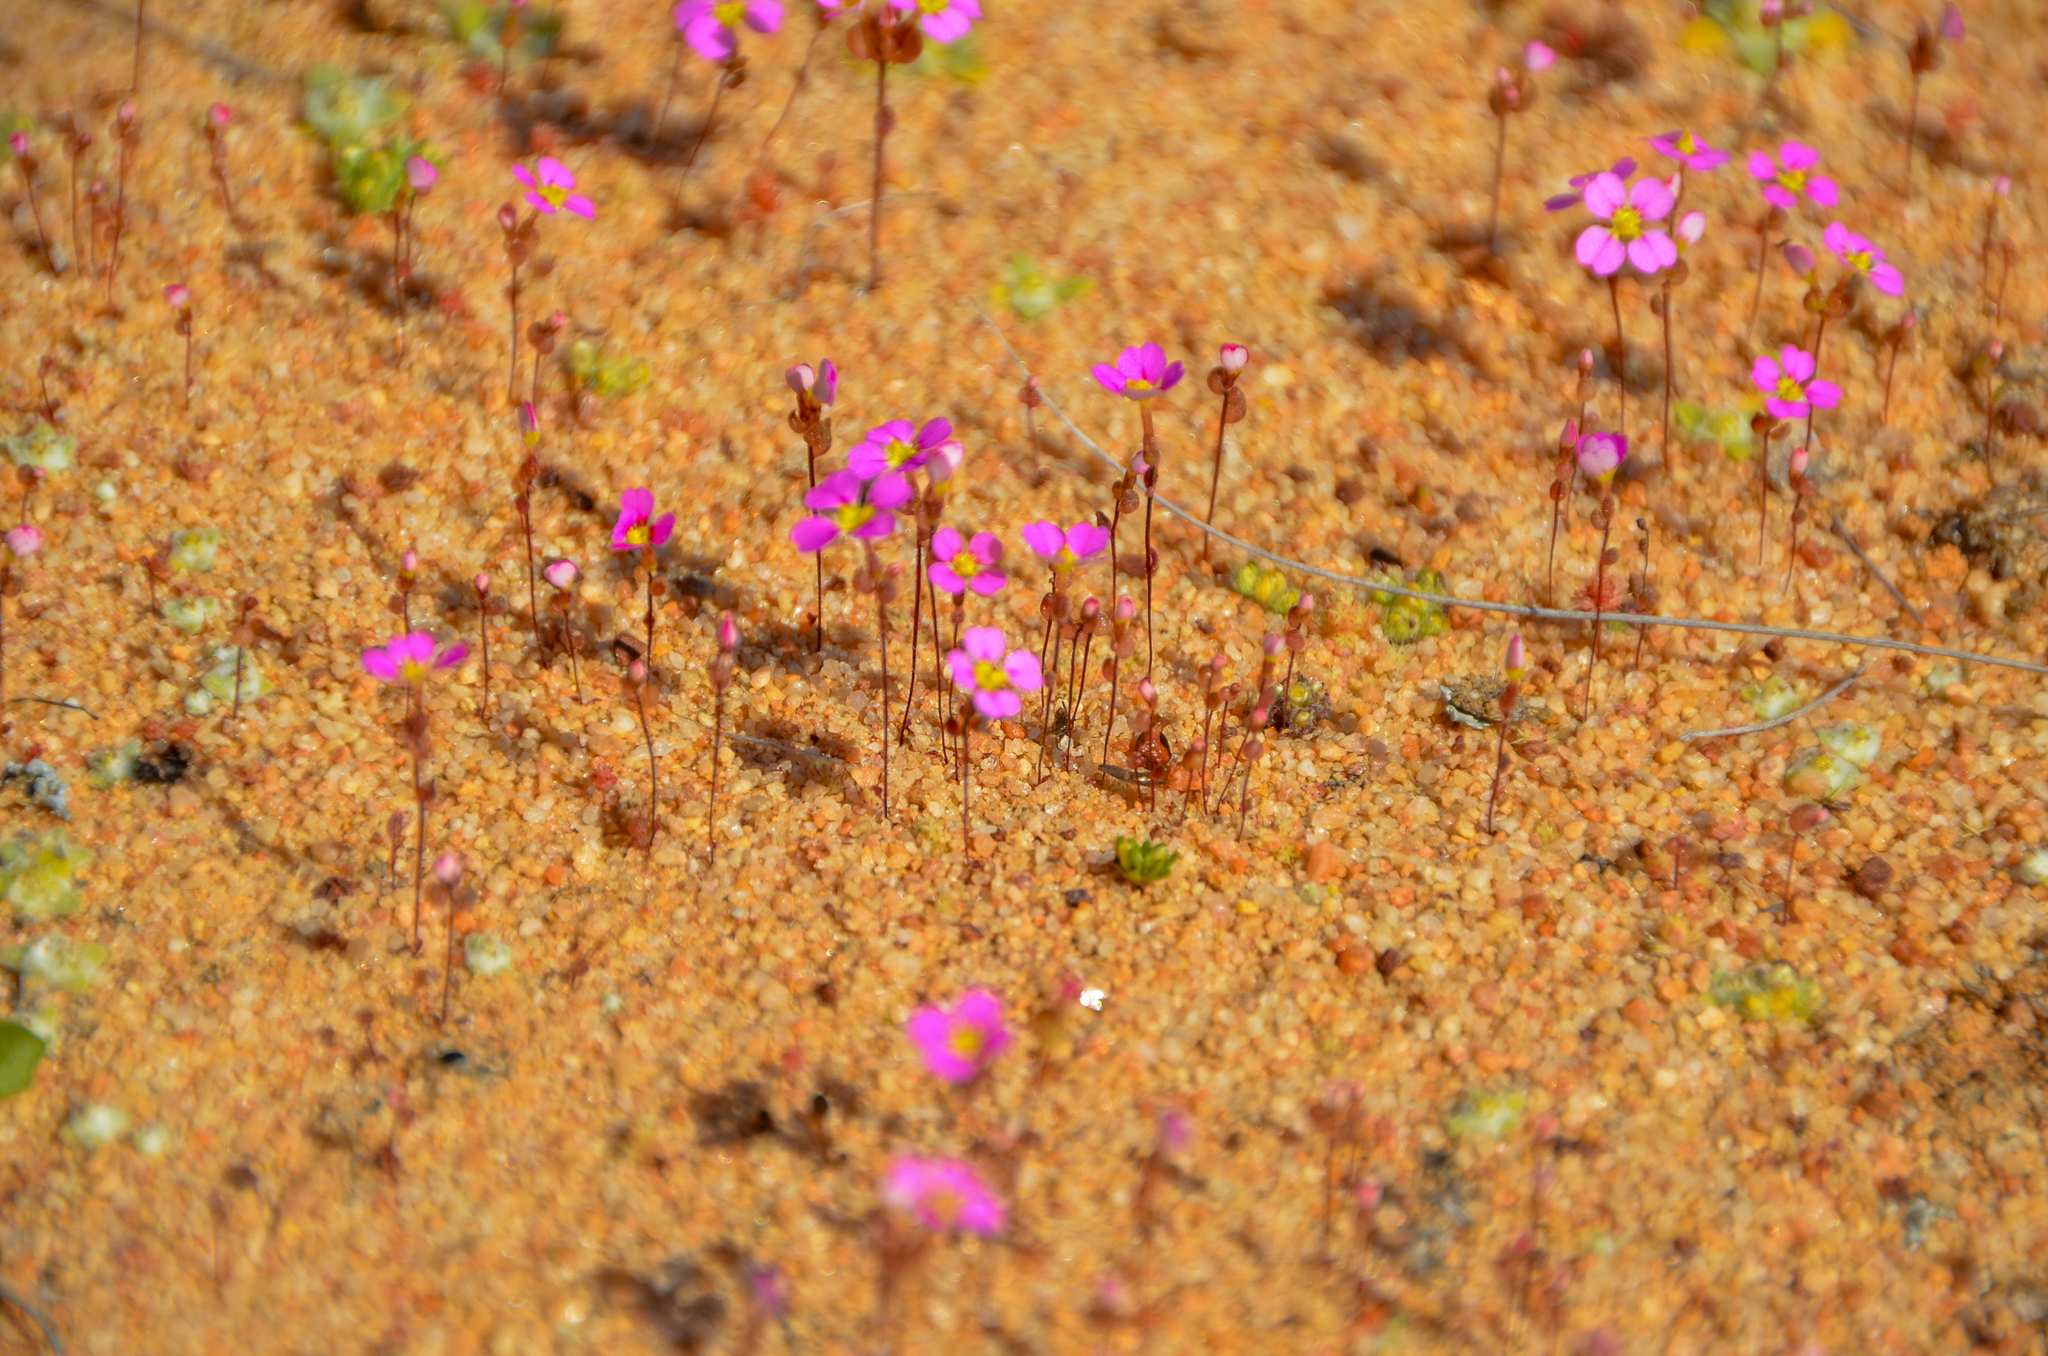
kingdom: Plantae
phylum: Tracheophyta
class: Magnoliopsida
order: Asterales
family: Stylidiaceae
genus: Levenhookia
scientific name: Levenhookia leptantha
